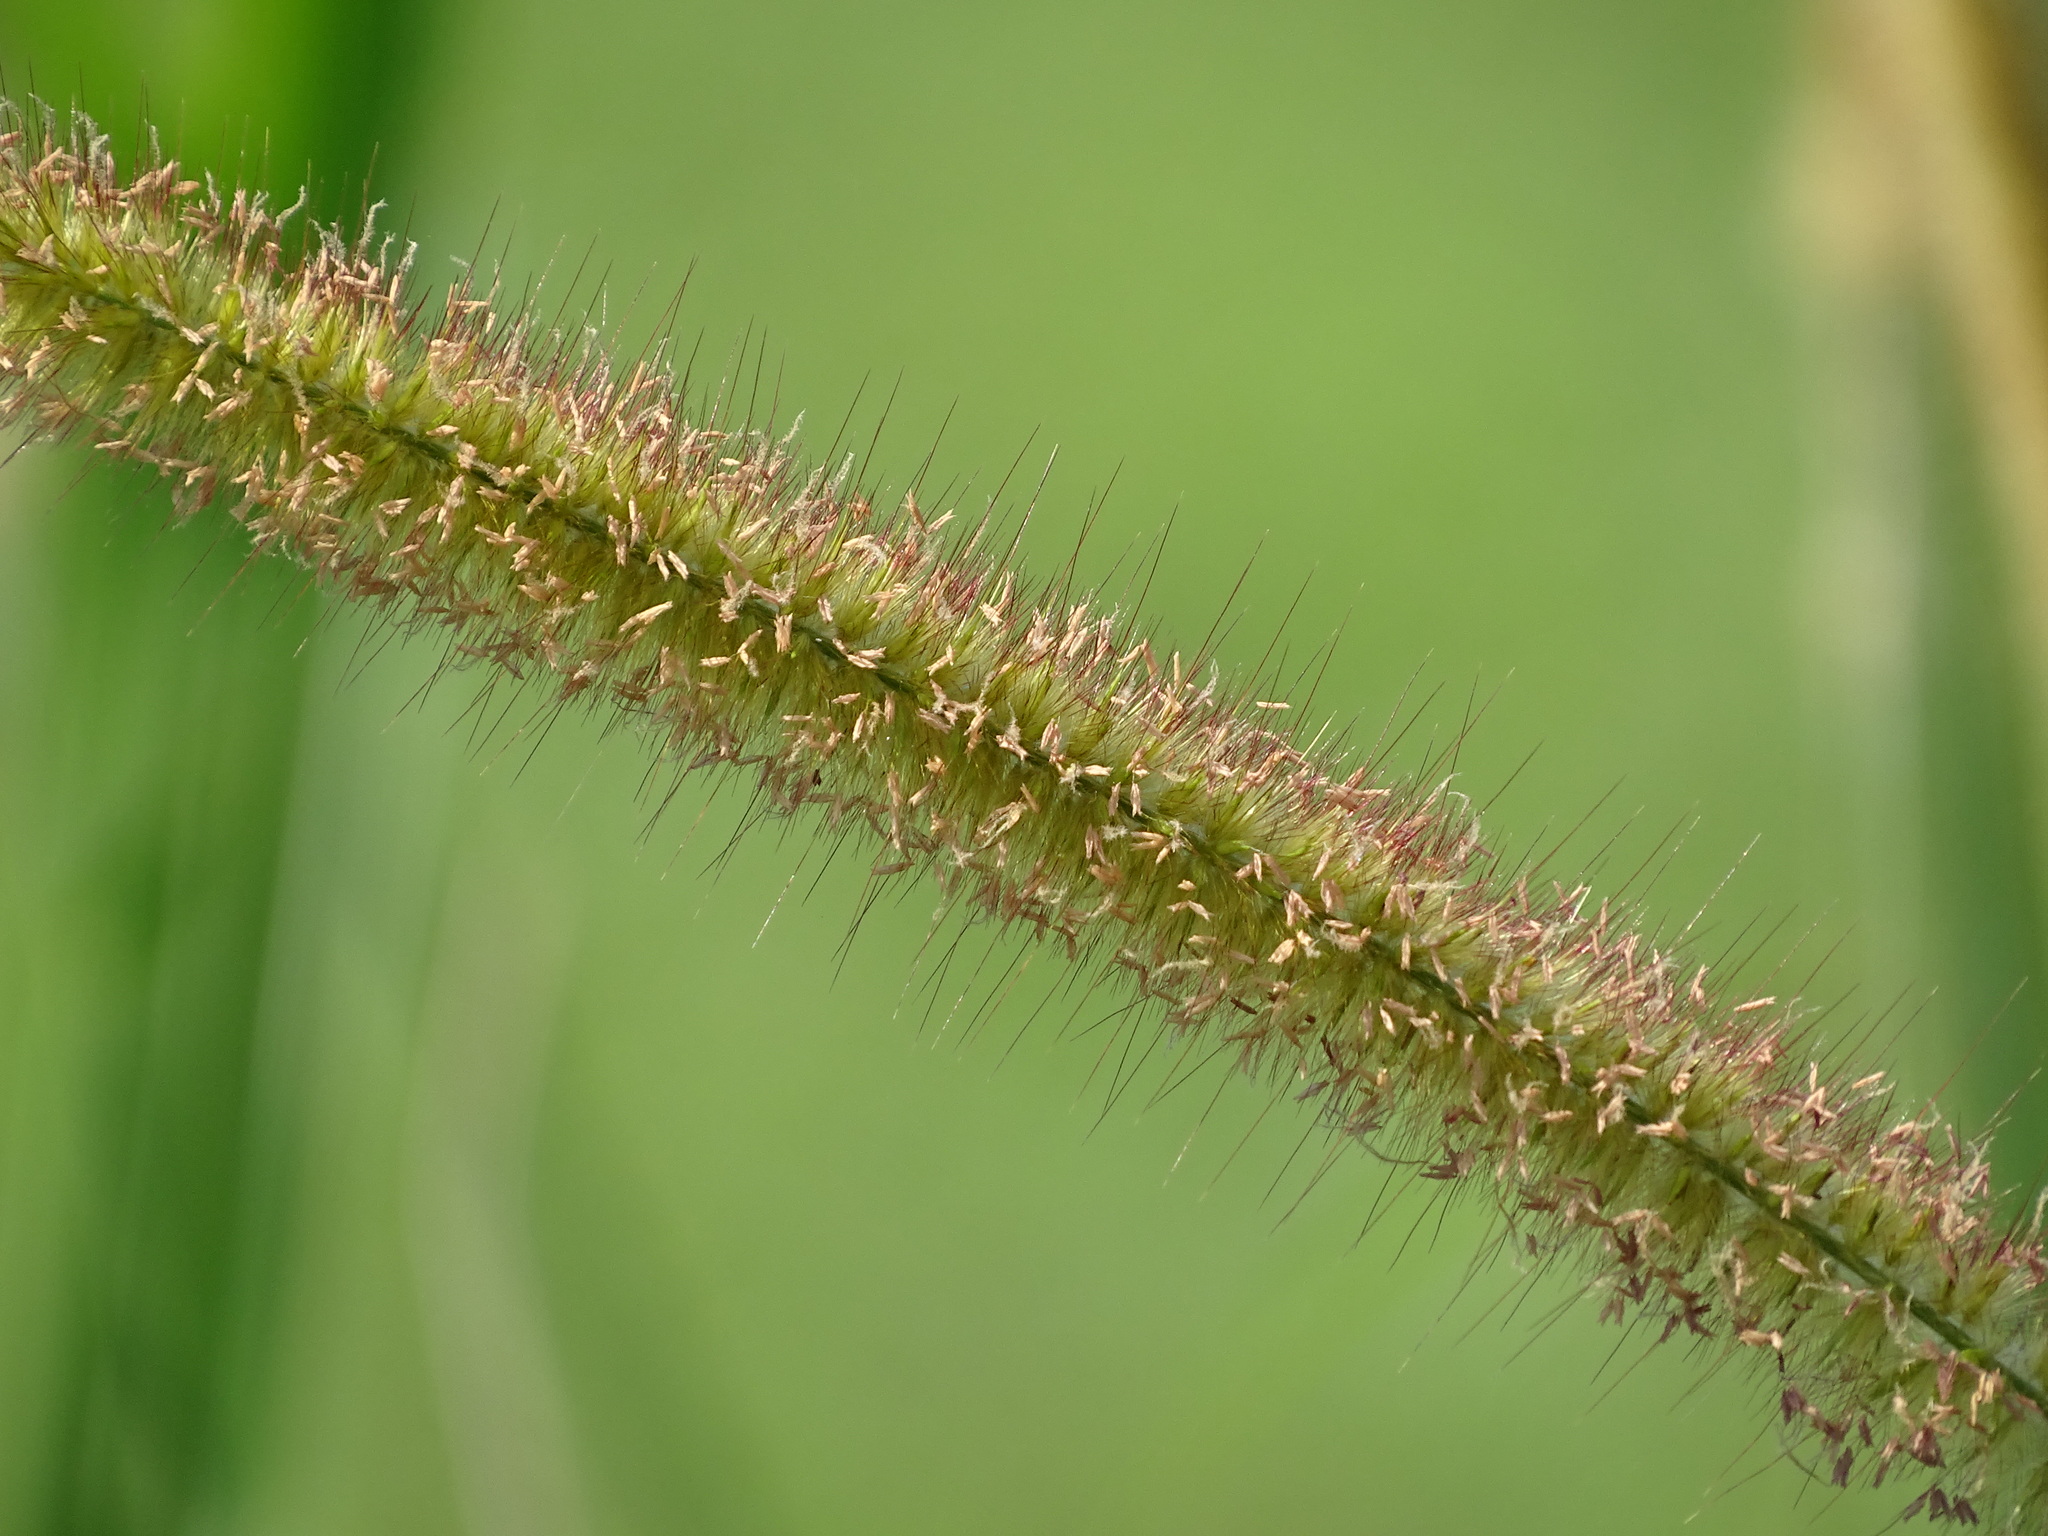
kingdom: Plantae
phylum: Tracheophyta
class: Liliopsida
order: Poales
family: Poaceae
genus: Cenchrus
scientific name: Cenchrus purpureus
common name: Elephant grass
